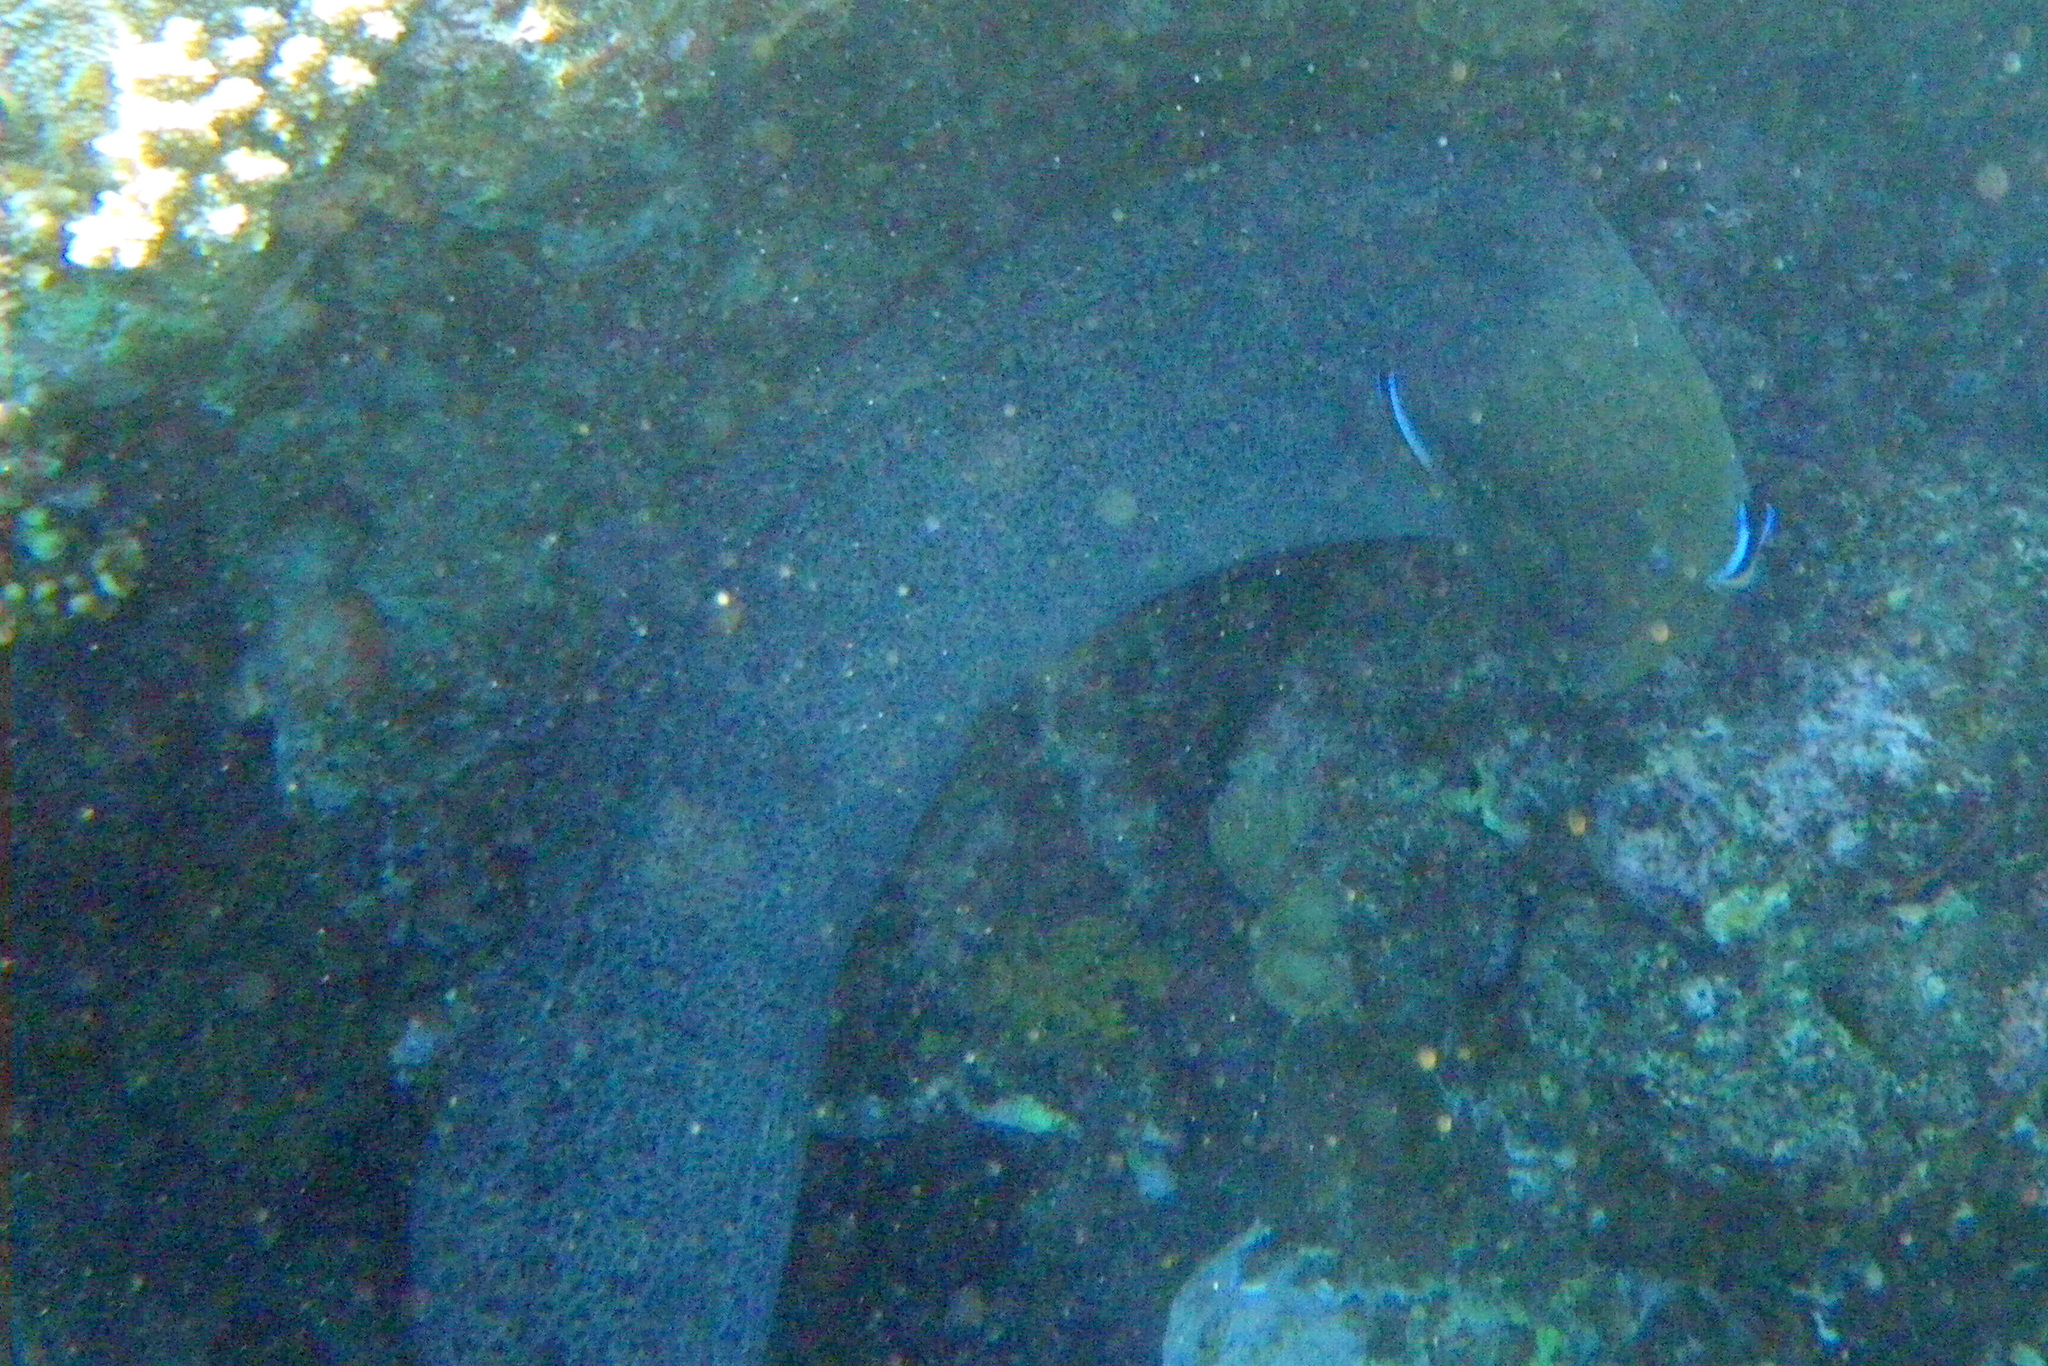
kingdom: Animalia
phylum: Chordata
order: Anguilliformes
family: Muraenidae
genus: Gymnothorax
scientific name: Gymnothorax javanicus
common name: Giant moray
